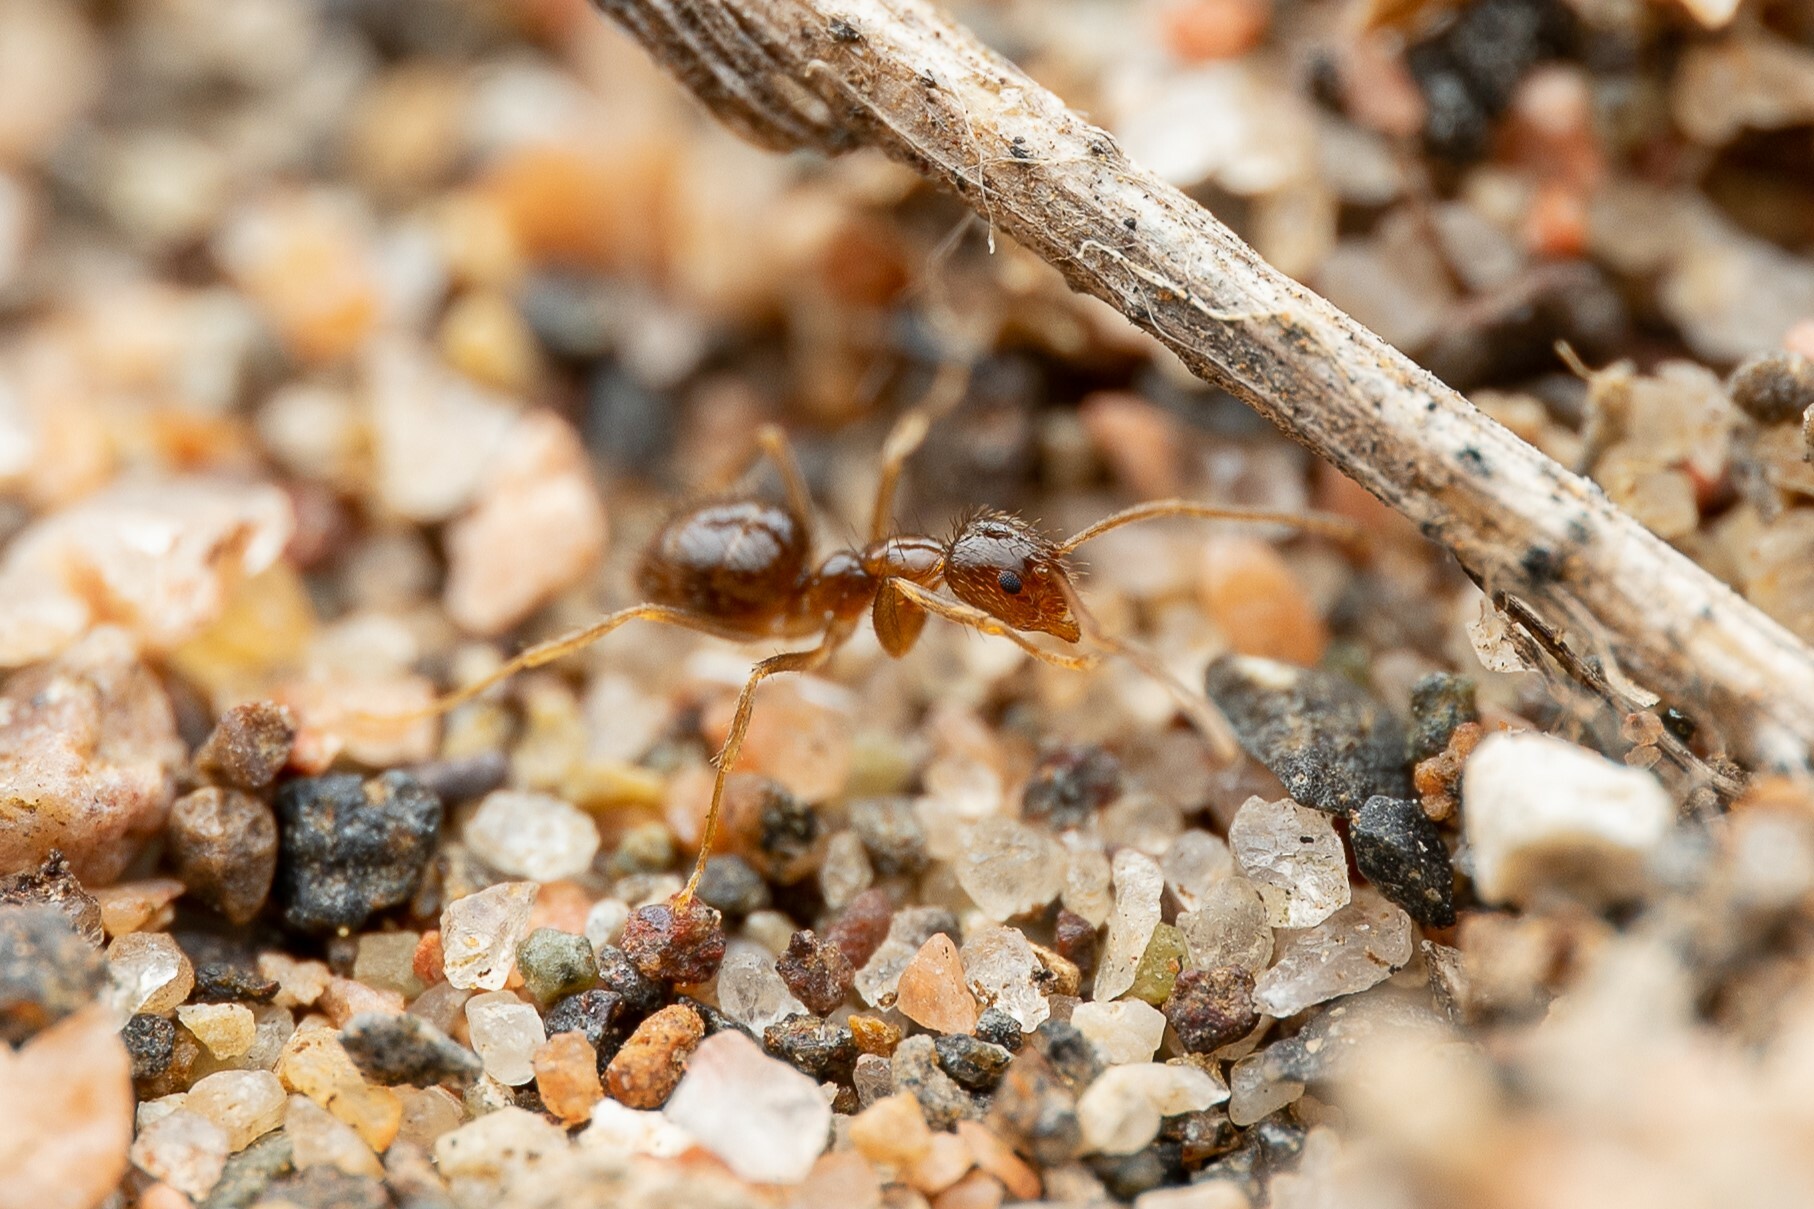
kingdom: Animalia
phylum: Arthropoda
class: Insecta
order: Hymenoptera
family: Formicidae
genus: Nylanderia
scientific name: Nylanderia bruesii
